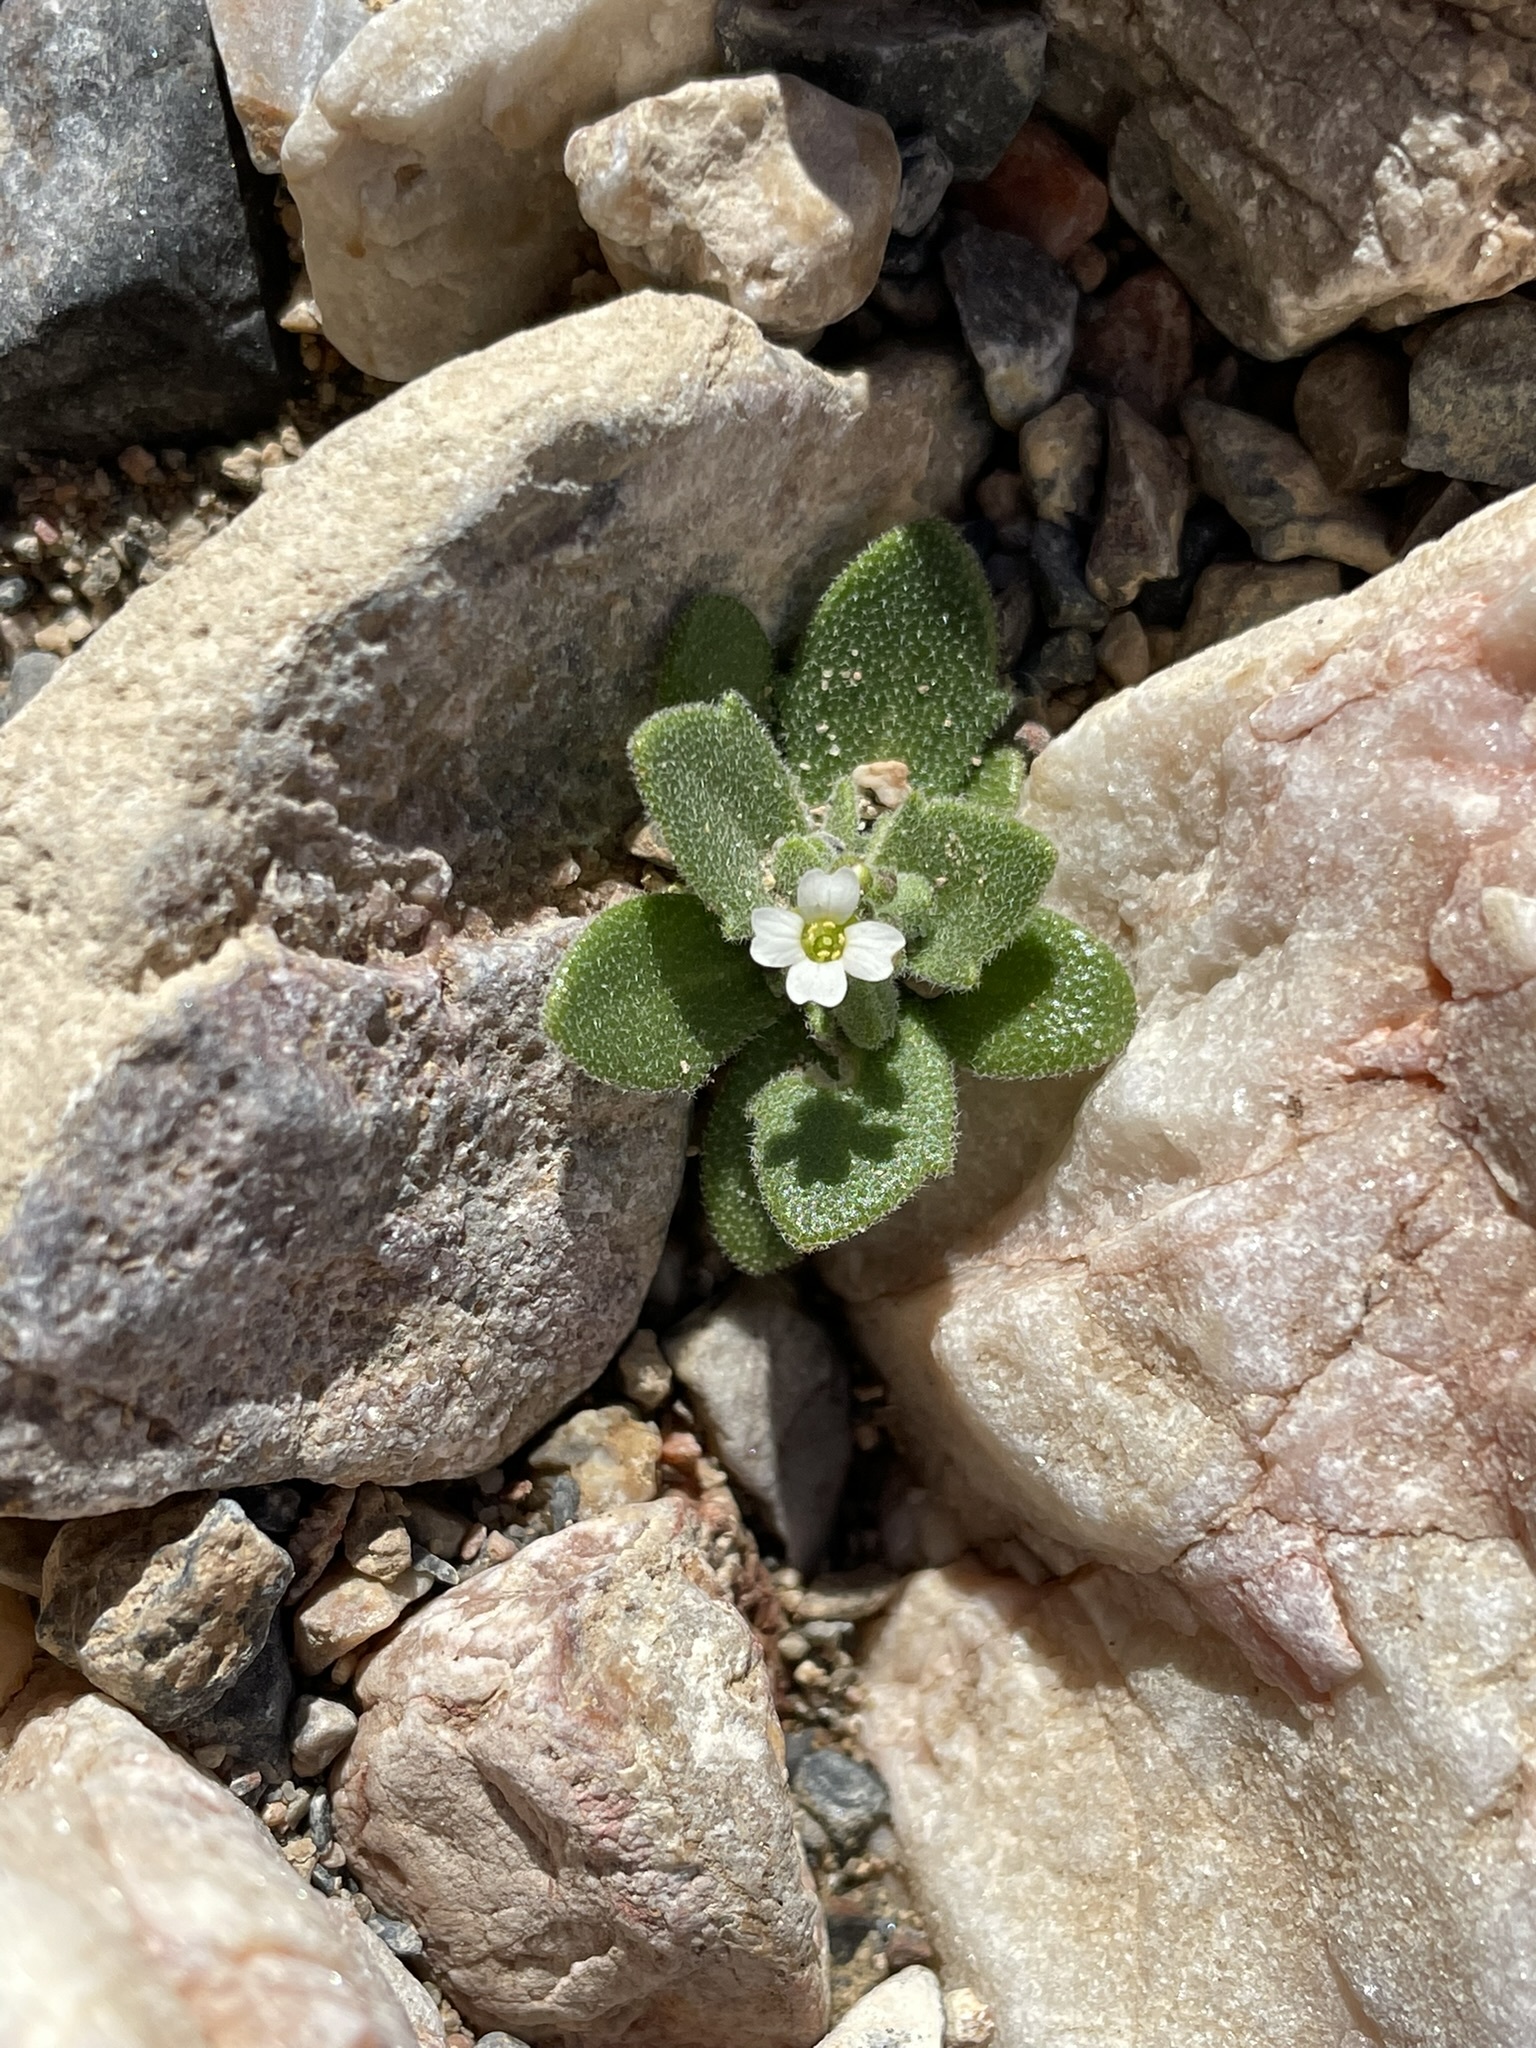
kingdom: Plantae
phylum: Tracheophyta
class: Magnoliopsida
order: Brassicales
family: Brassicaceae
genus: Tomostima
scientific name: Tomostima cuneifolia
